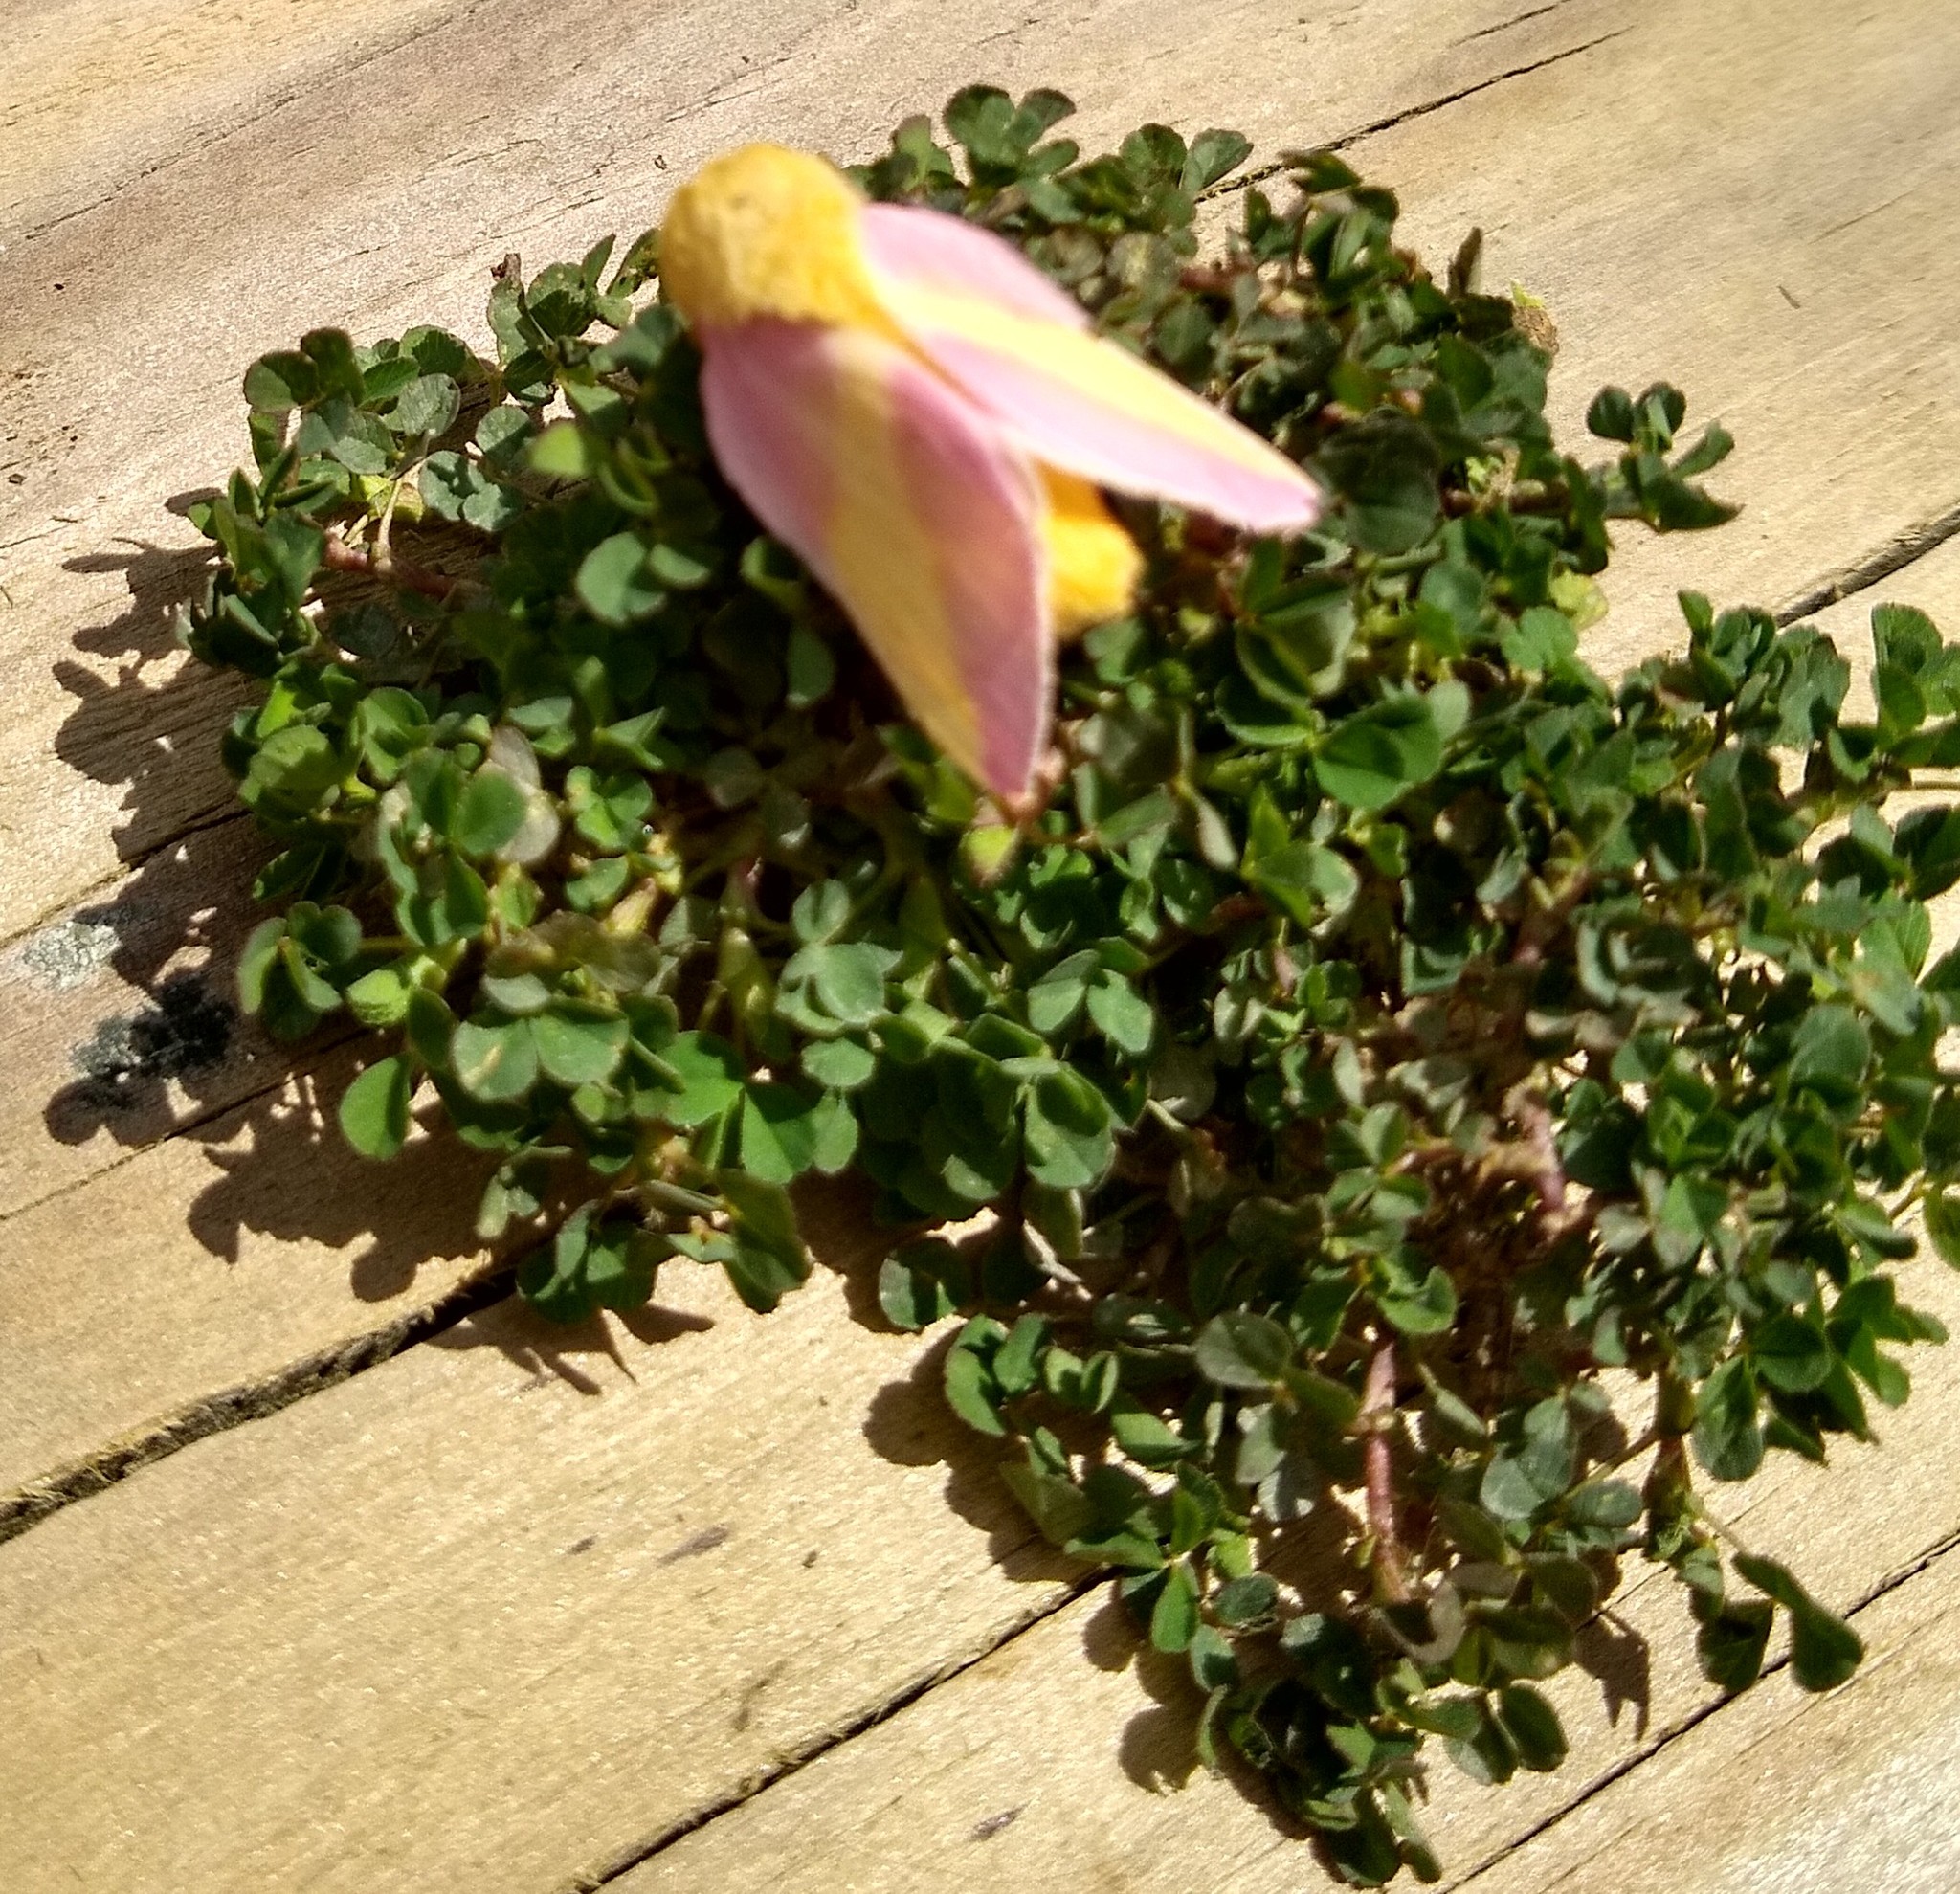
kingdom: Animalia
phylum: Arthropoda
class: Insecta
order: Lepidoptera
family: Saturniidae
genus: Dryocampa
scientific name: Dryocampa rubicunda
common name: Rosy maple moth
